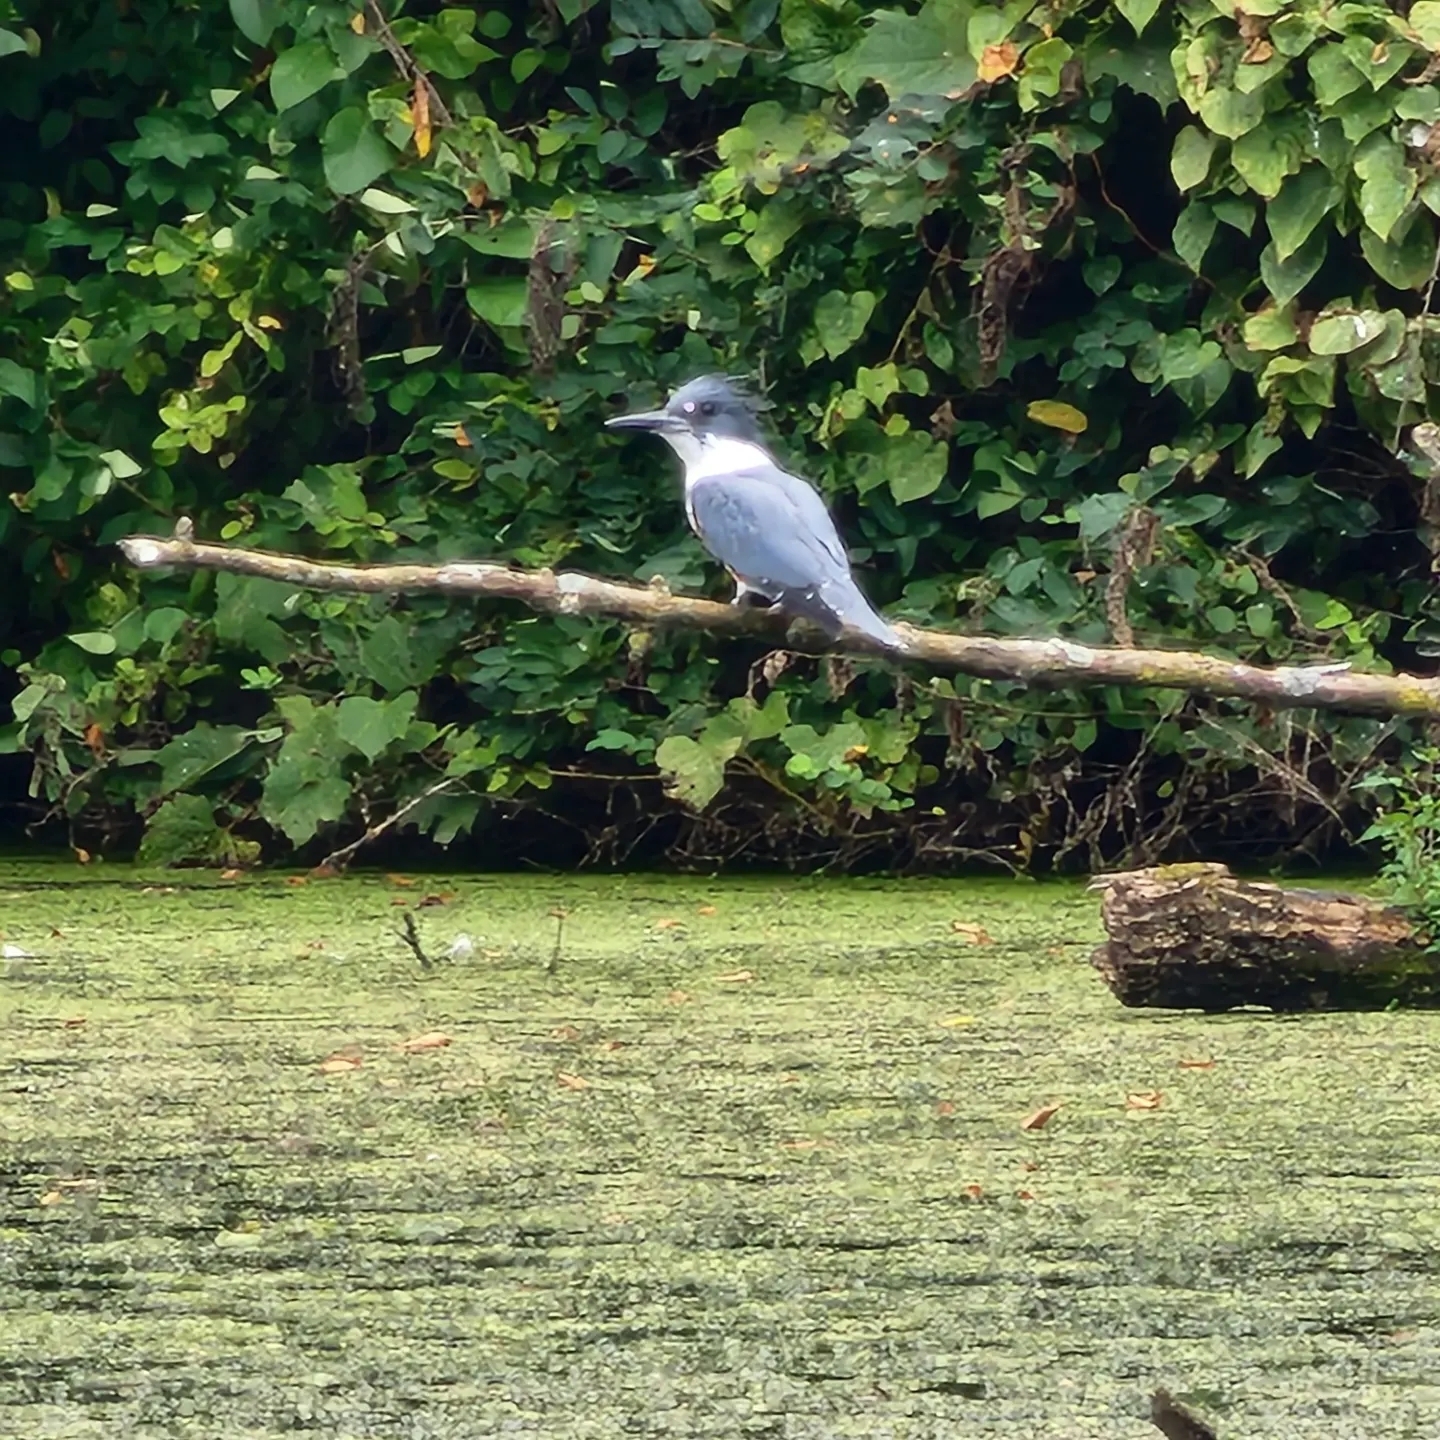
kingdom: Animalia
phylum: Chordata
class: Aves
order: Coraciiformes
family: Alcedinidae
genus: Megaceryle
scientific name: Megaceryle alcyon
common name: Belted kingfisher
